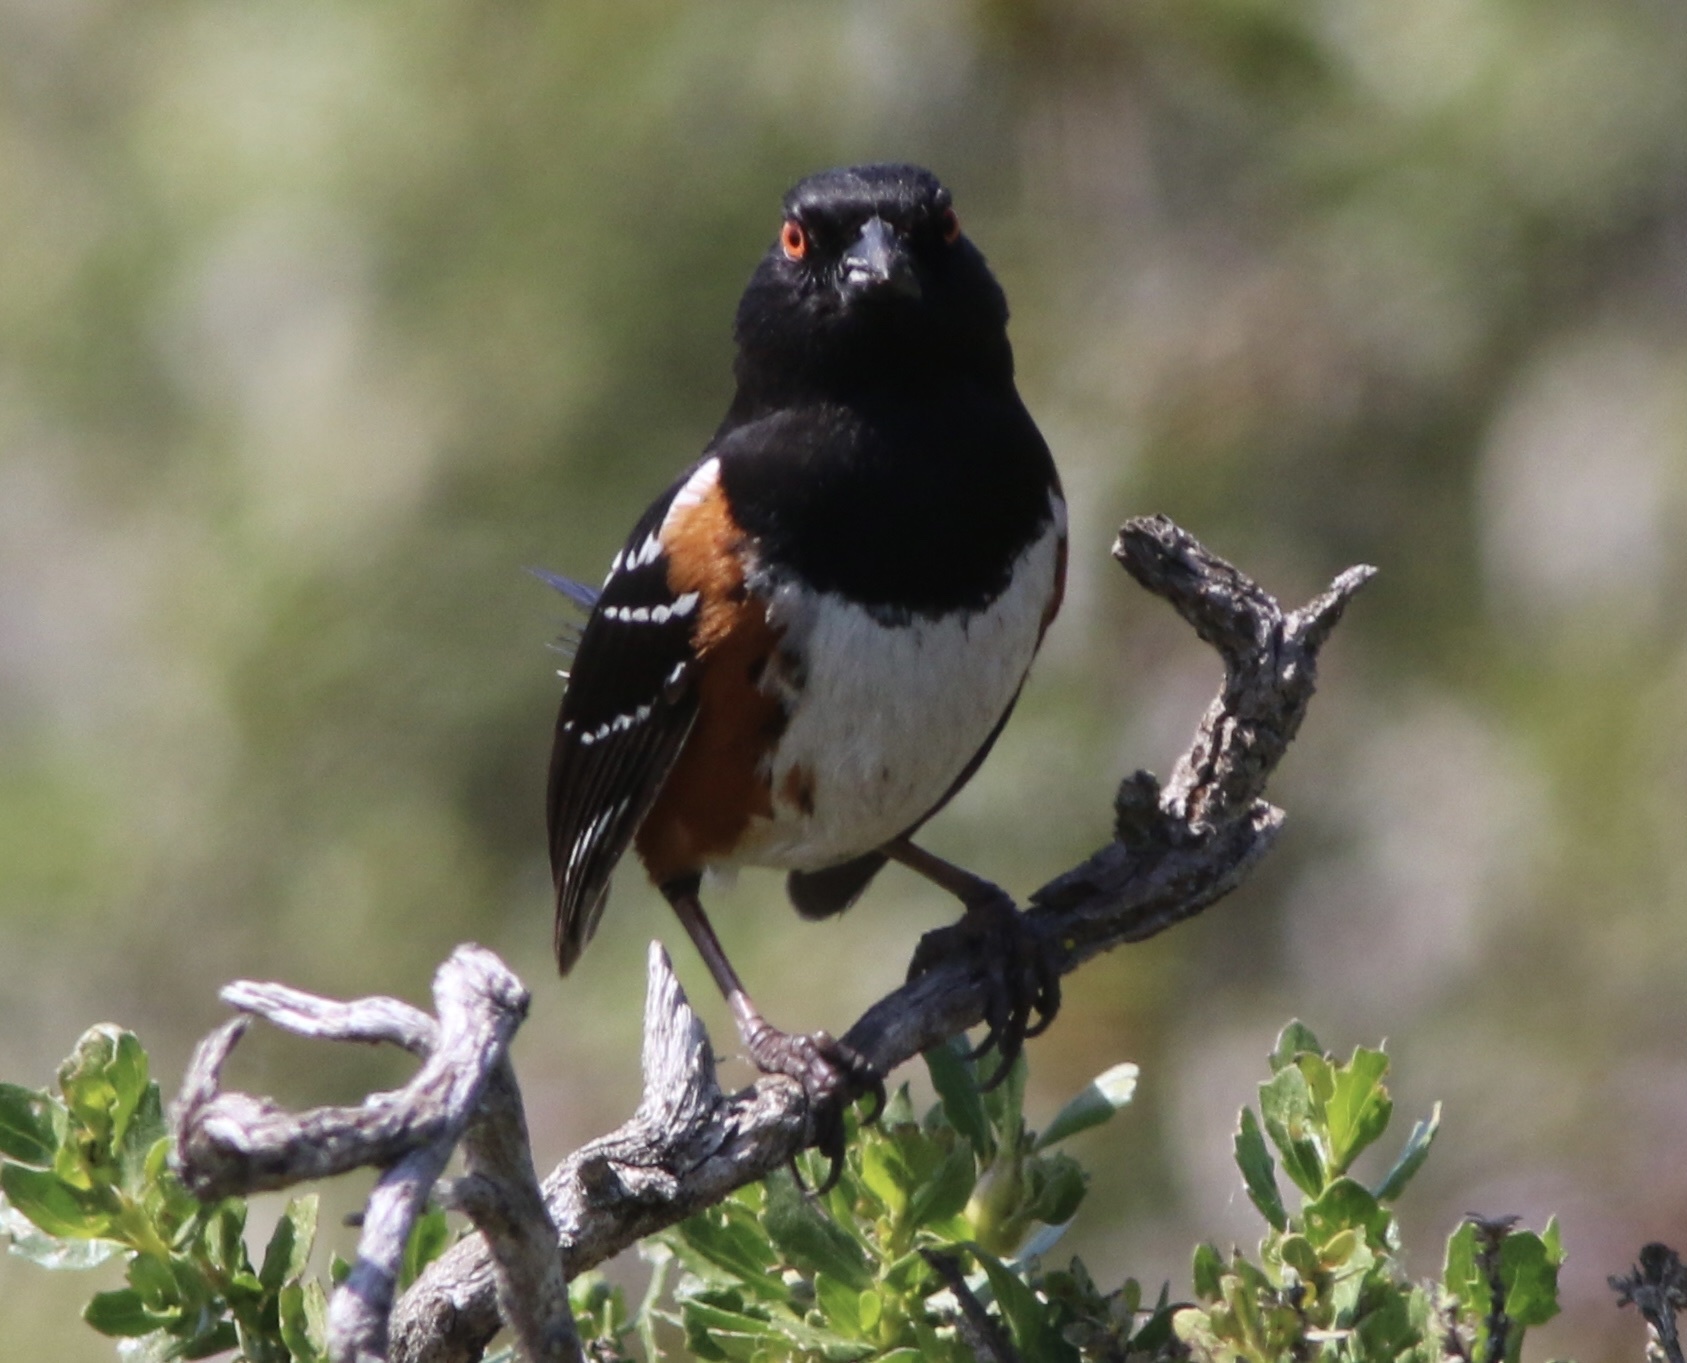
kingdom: Animalia
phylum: Chordata
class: Aves
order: Passeriformes
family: Passerellidae
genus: Pipilo
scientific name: Pipilo maculatus
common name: Spotted towhee
